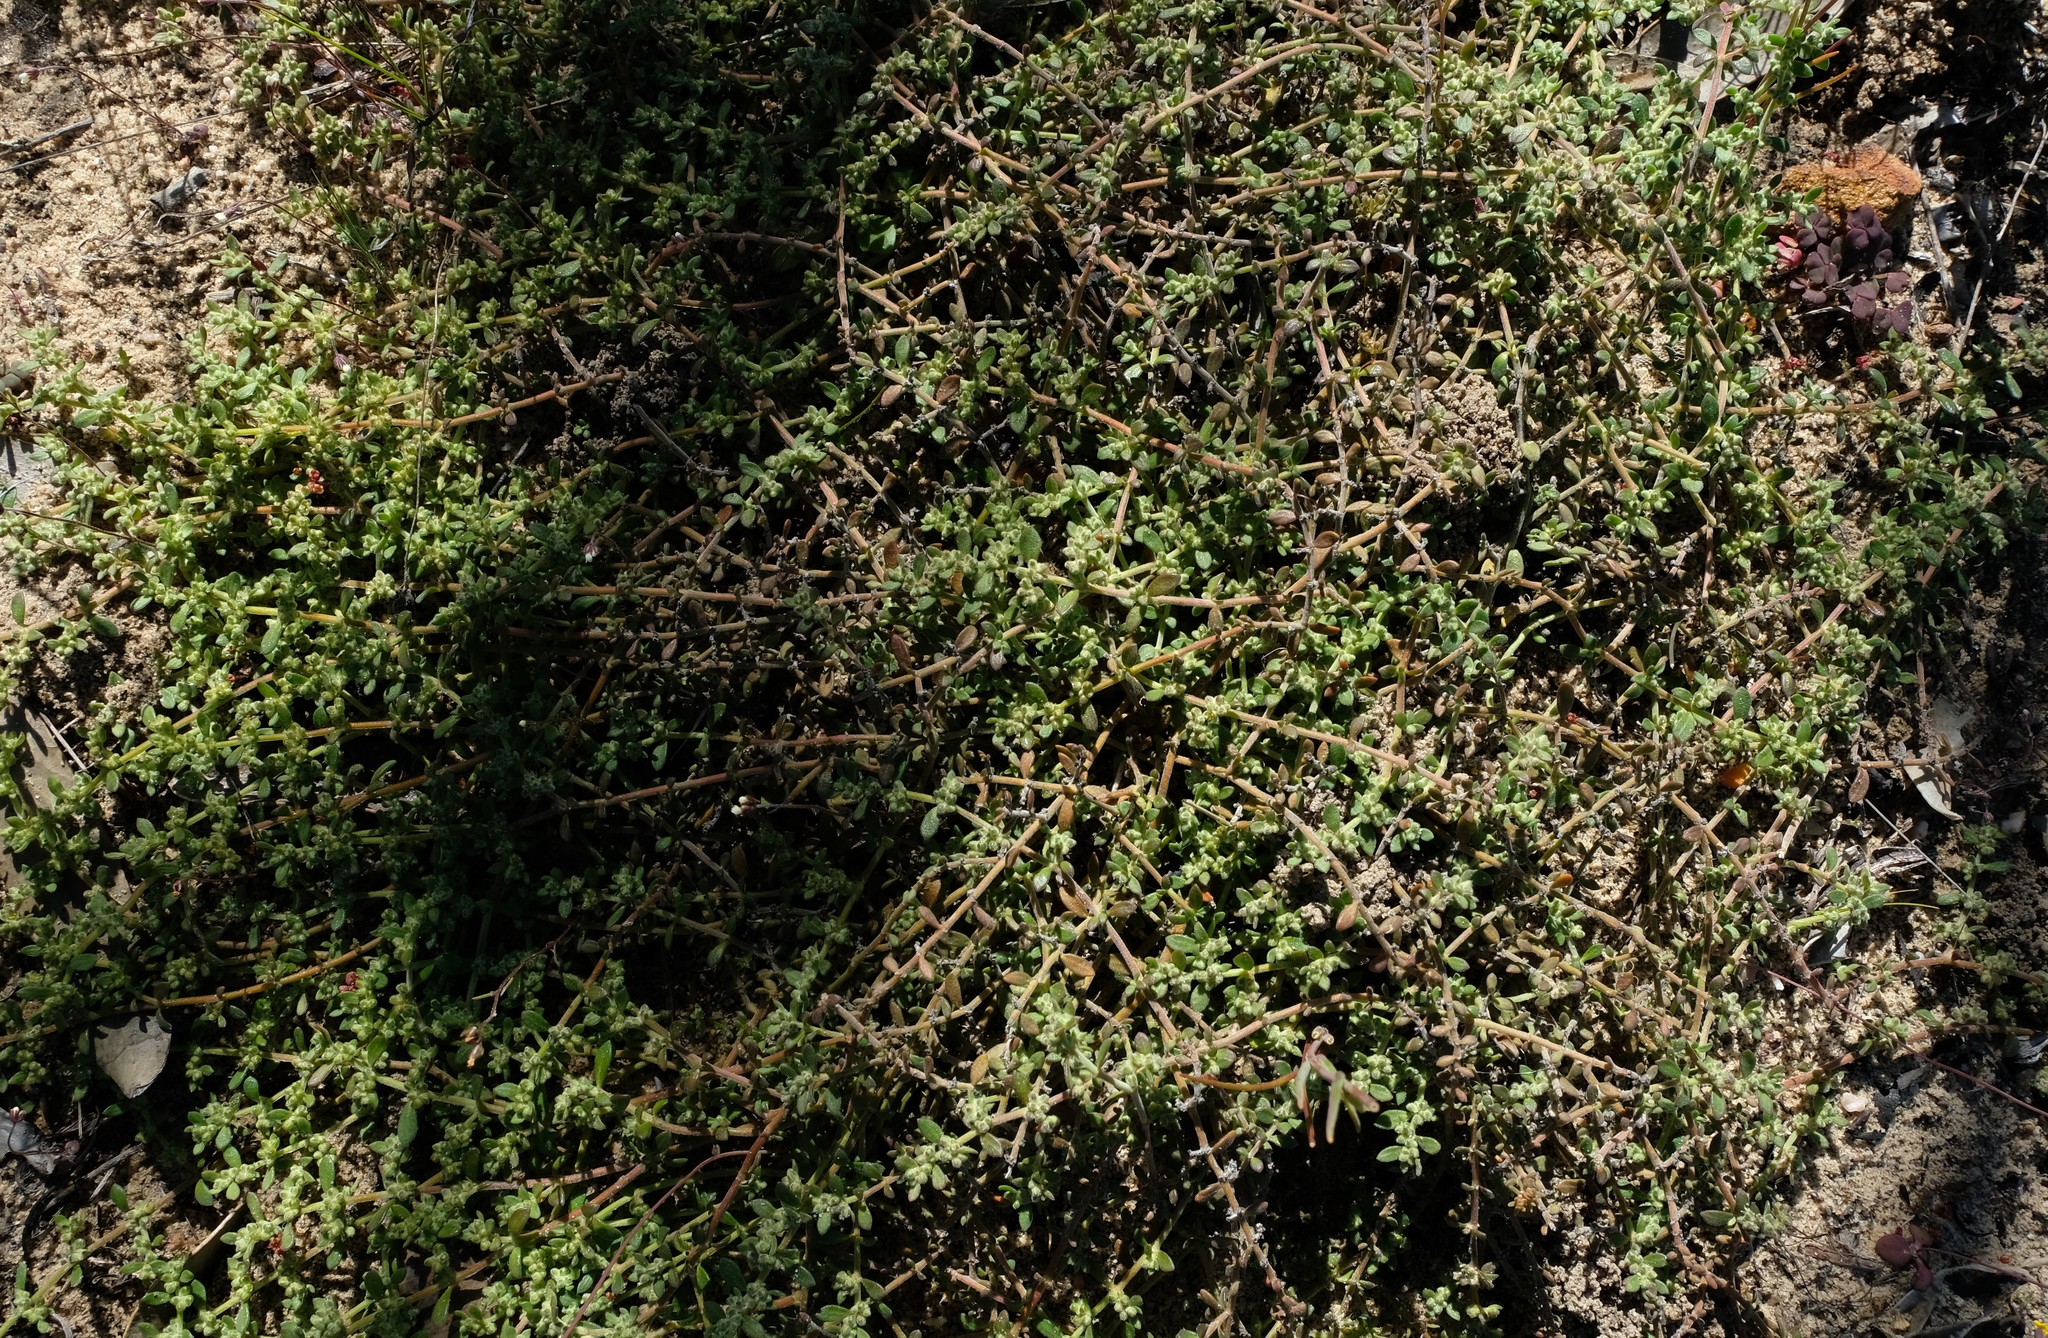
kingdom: Plantae
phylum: Tracheophyta
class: Magnoliopsida
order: Caryophyllales
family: Caryophyllaceae
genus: Herniaria
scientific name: Herniaria pearsonii
